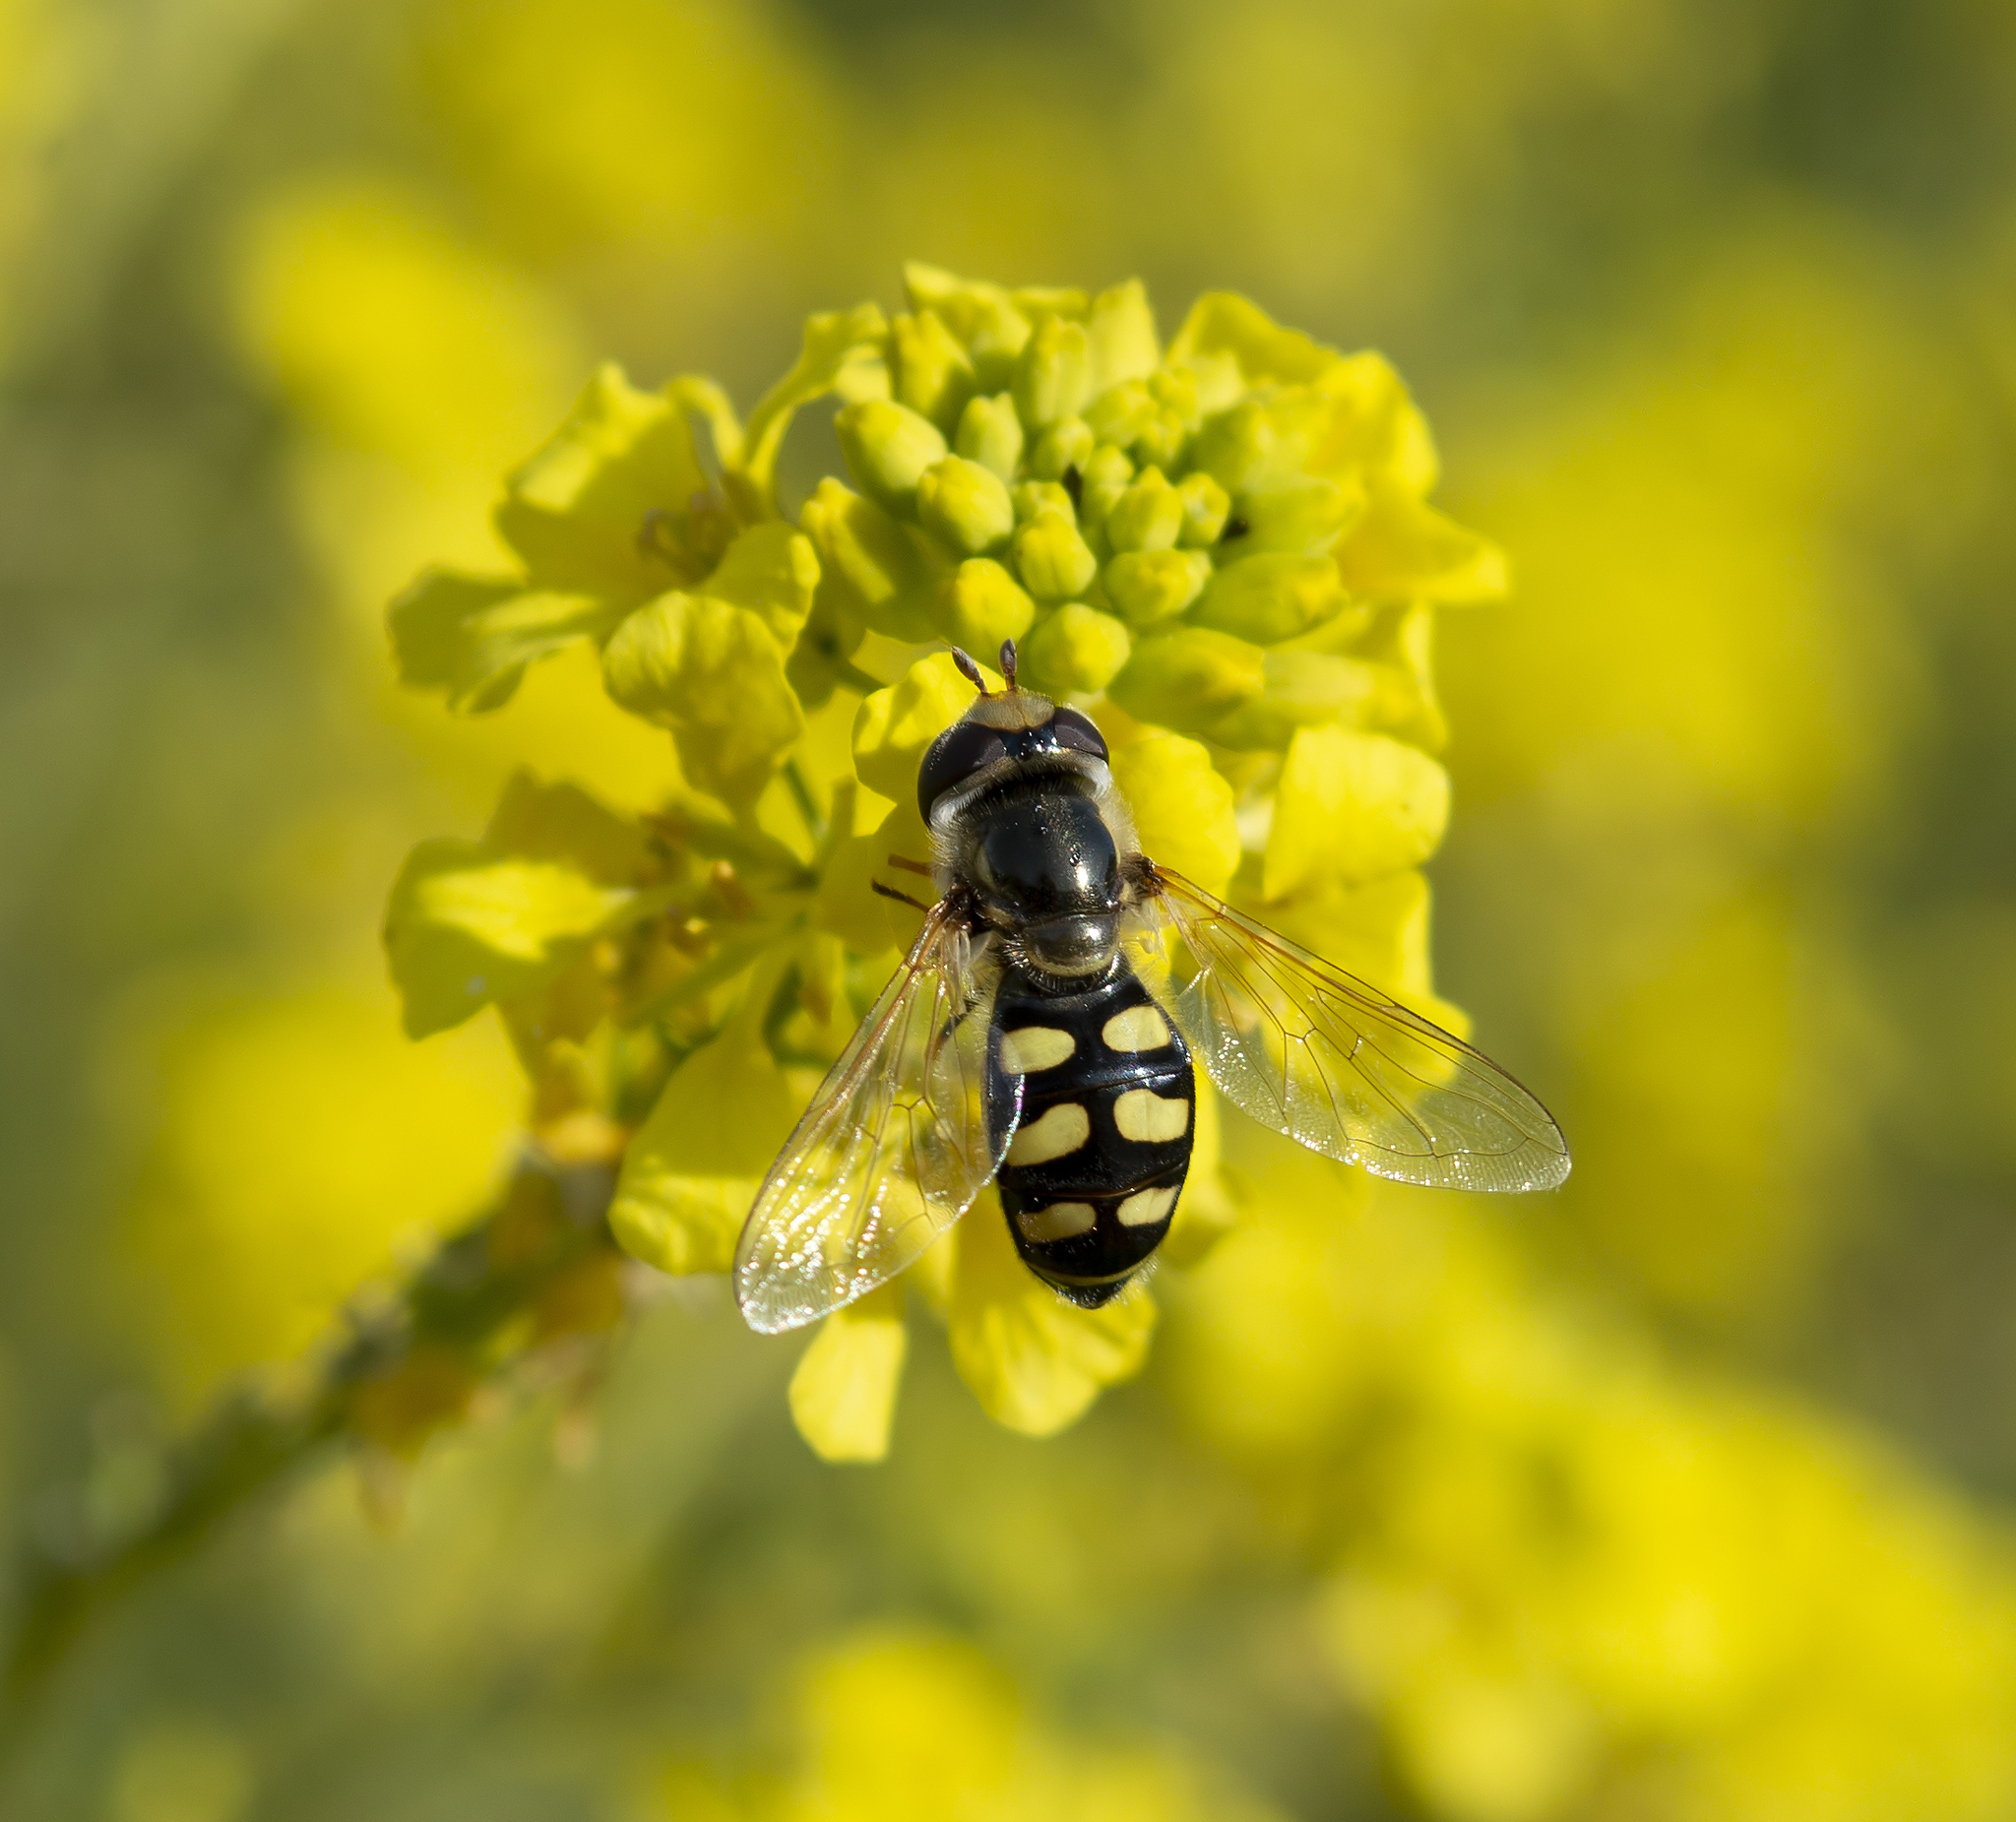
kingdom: Animalia
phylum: Arthropoda
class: Insecta
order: Diptera
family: Syrphidae
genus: Eupeodes
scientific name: Eupeodes luniger
